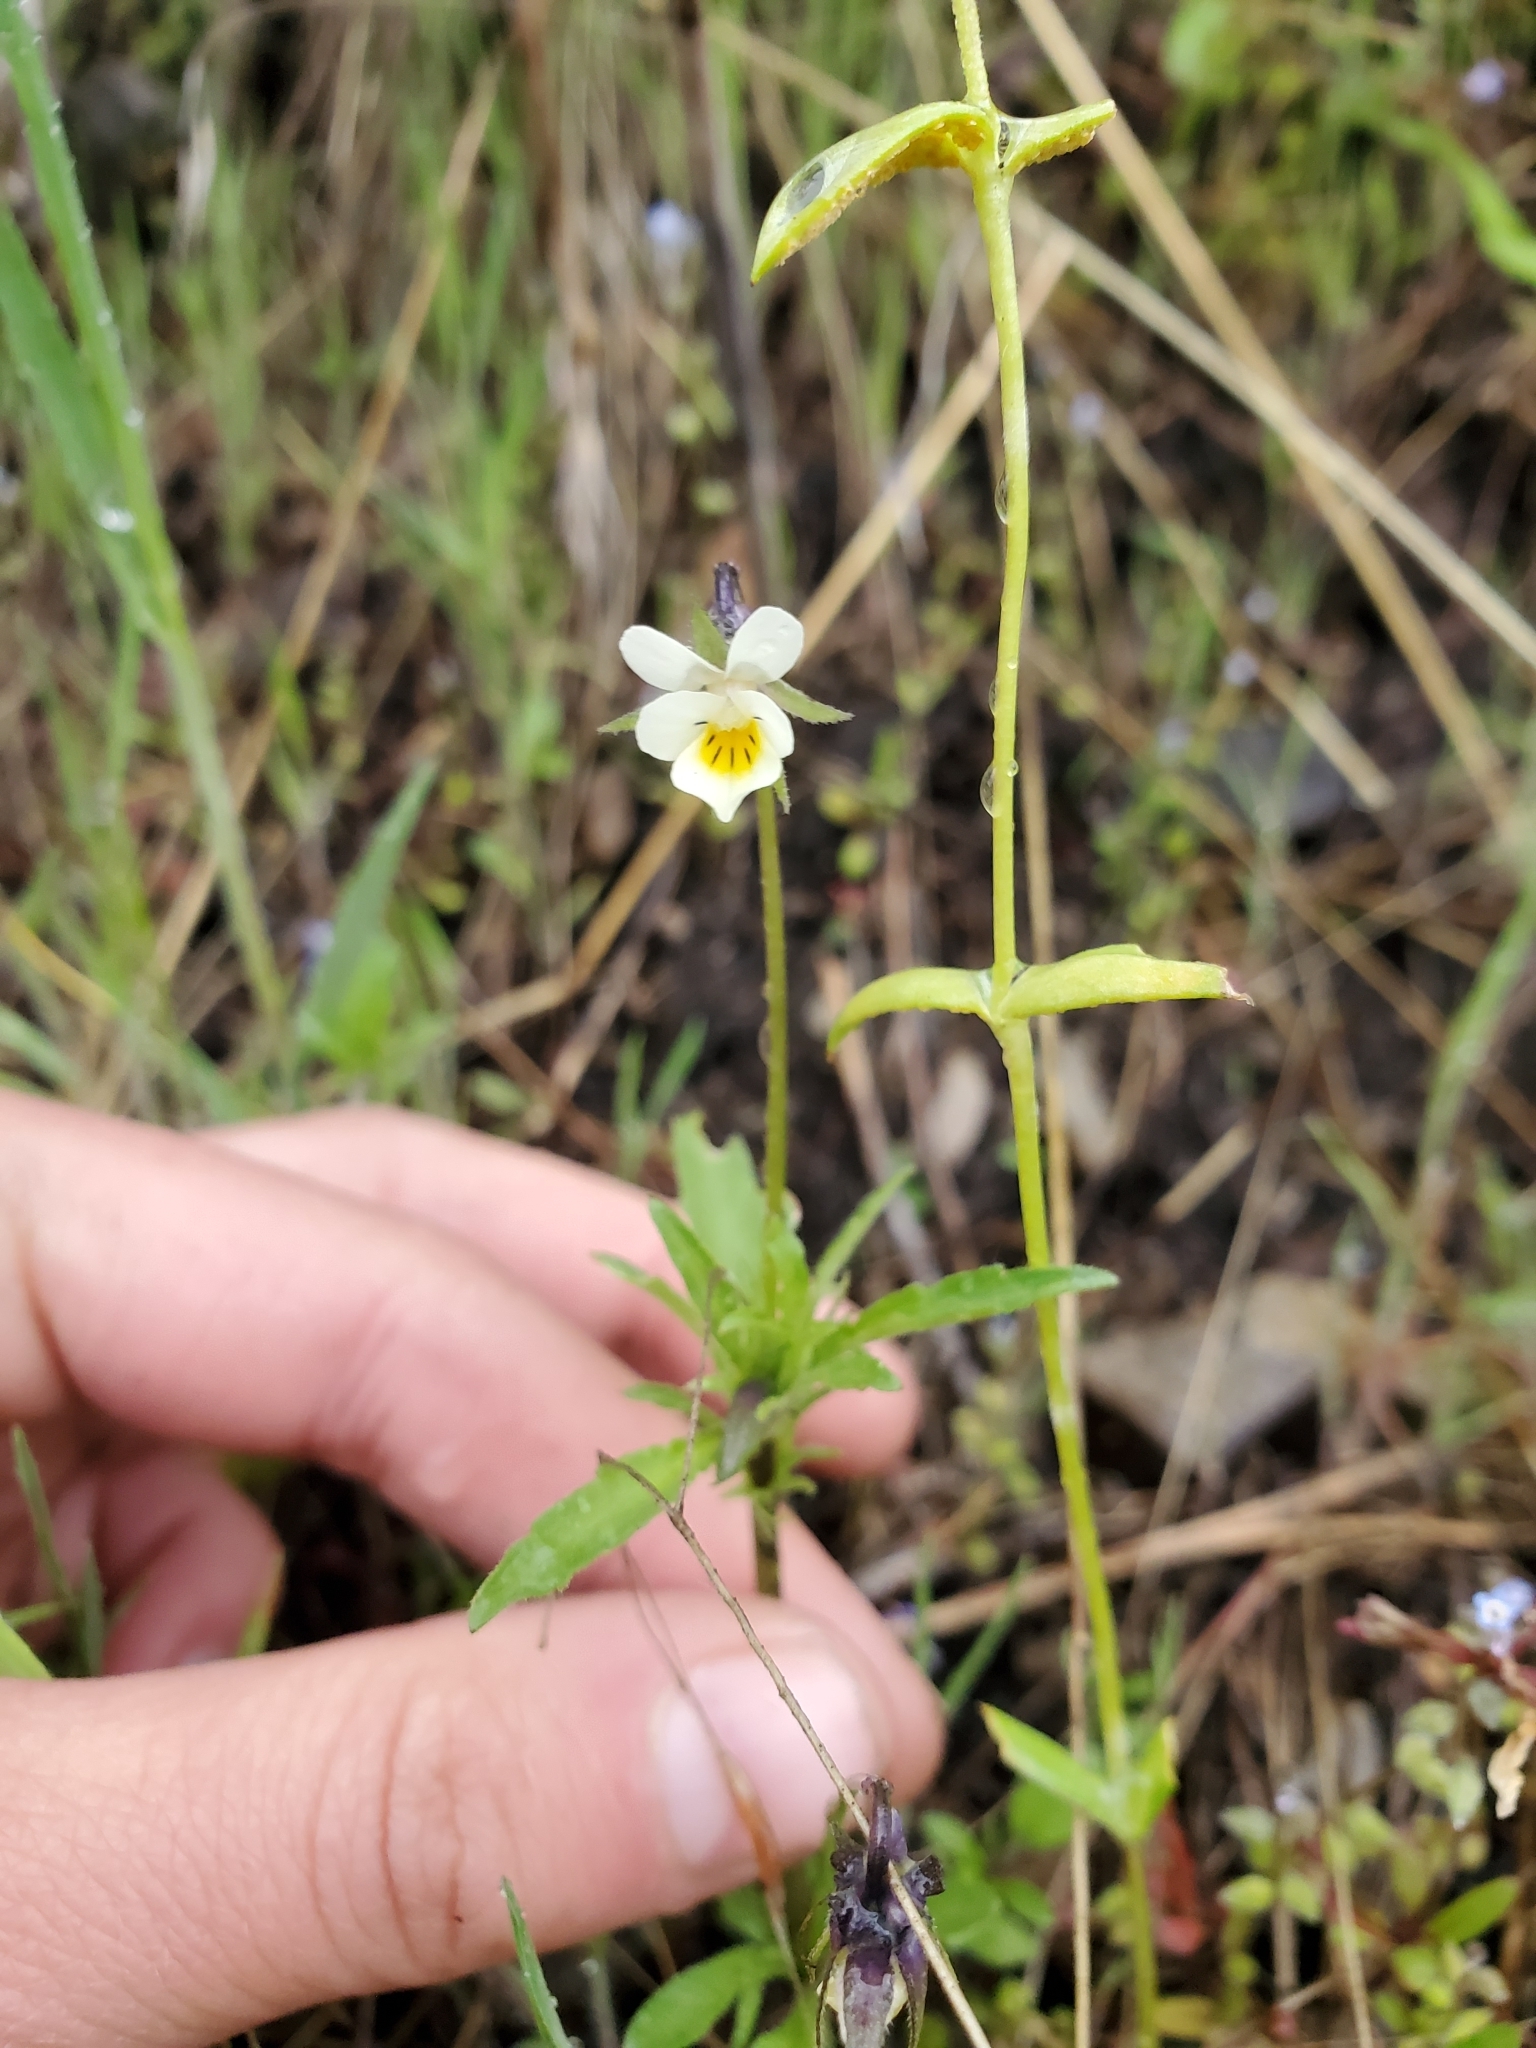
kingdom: Plantae
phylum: Tracheophyta
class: Magnoliopsida
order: Malpighiales
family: Violaceae
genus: Viola
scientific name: Viola arvensis
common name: Field pansy
